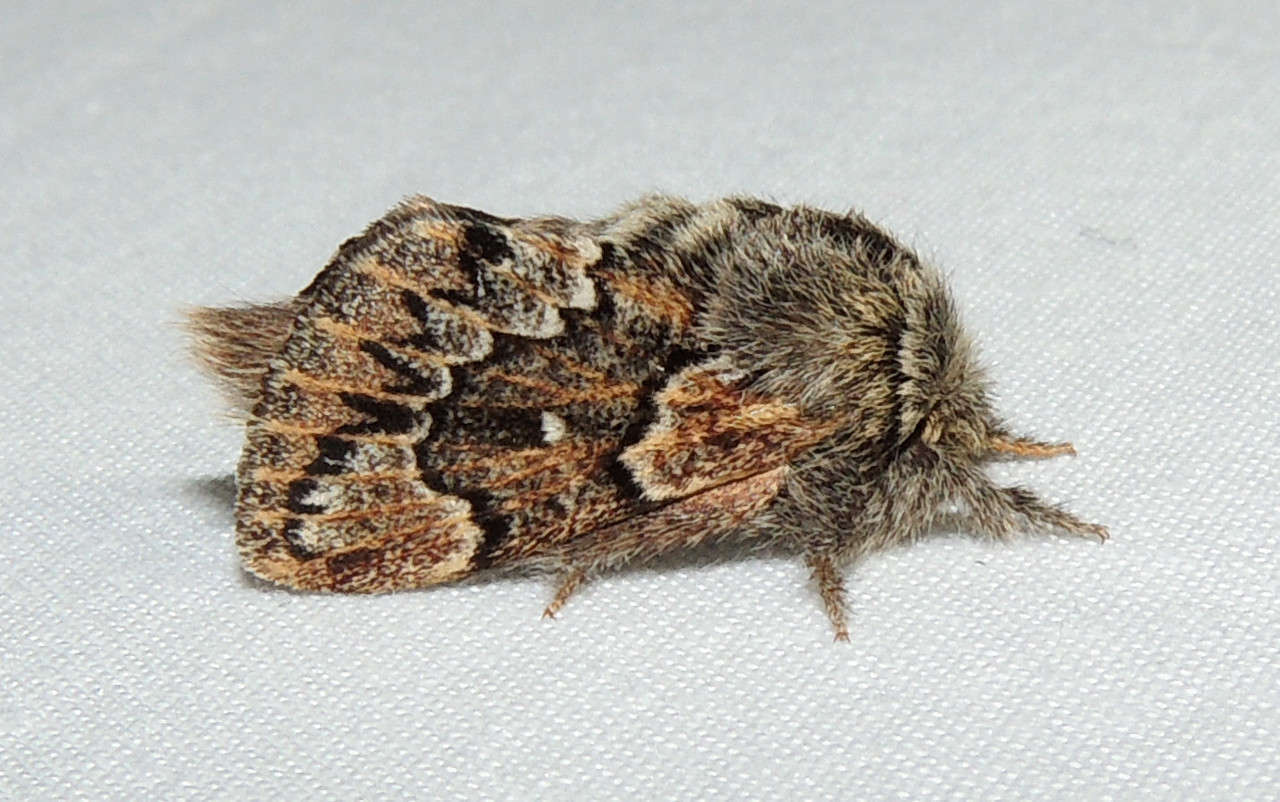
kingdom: Animalia
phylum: Arthropoda
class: Insecta
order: Lepidoptera
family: Lasiocampidae
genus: Pernattia
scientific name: Pernattia pusilla
